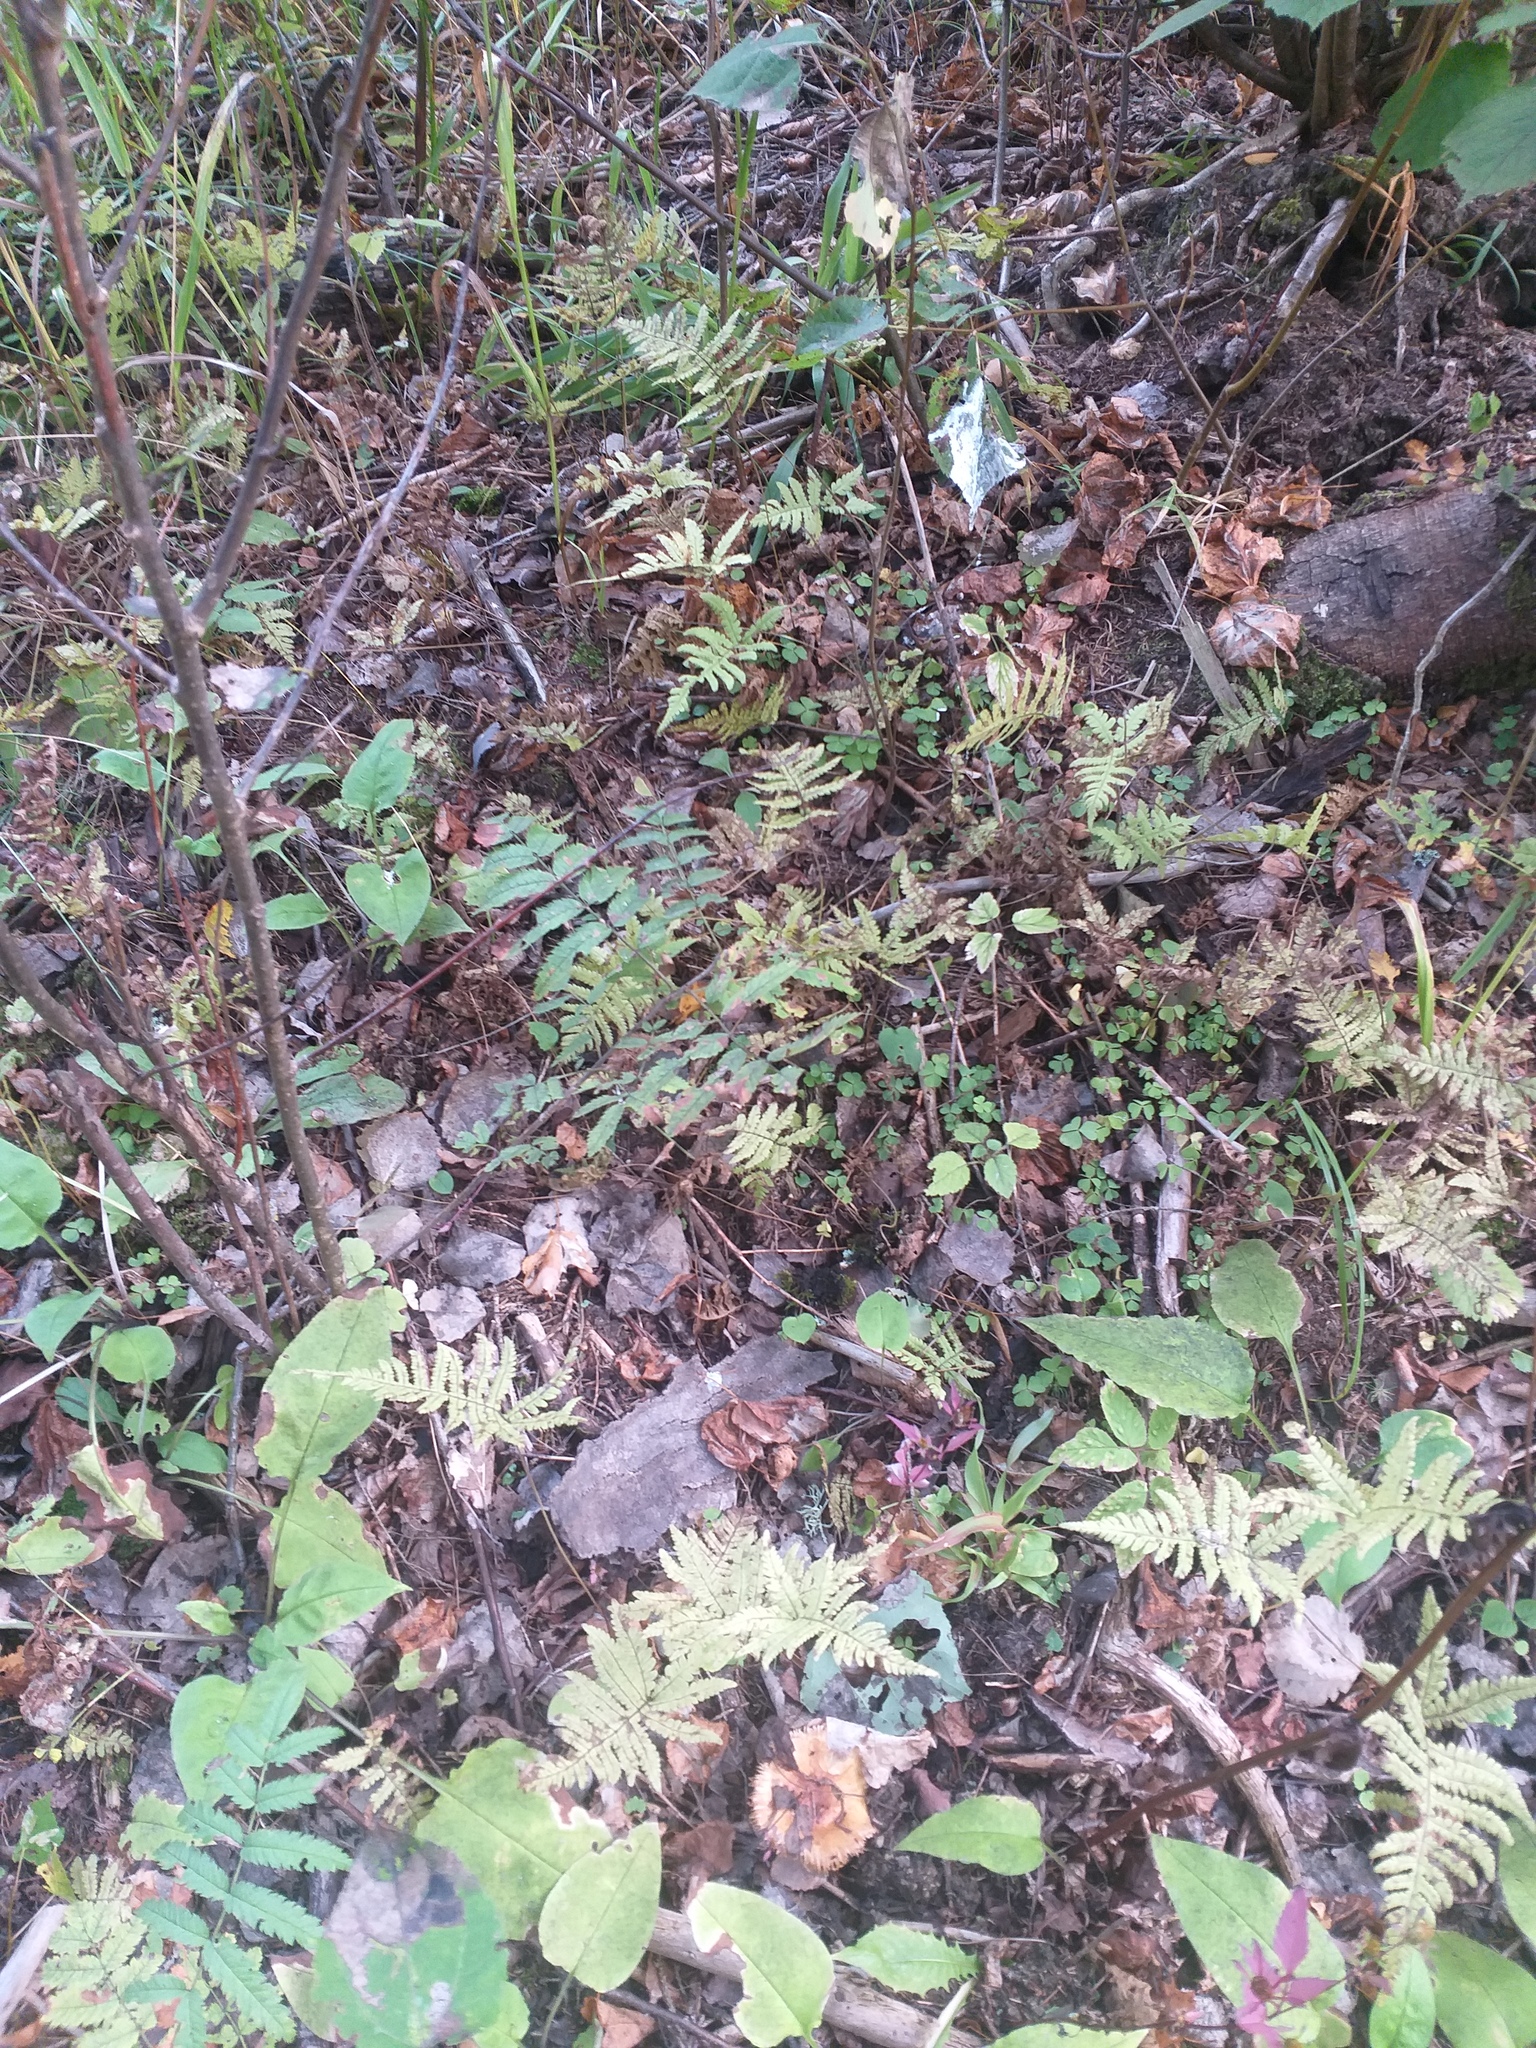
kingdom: Plantae
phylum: Tracheophyta
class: Polypodiopsida
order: Polypodiales
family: Thelypteridaceae
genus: Phegopteris
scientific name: Phegopteris connectilis
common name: Beech fern
